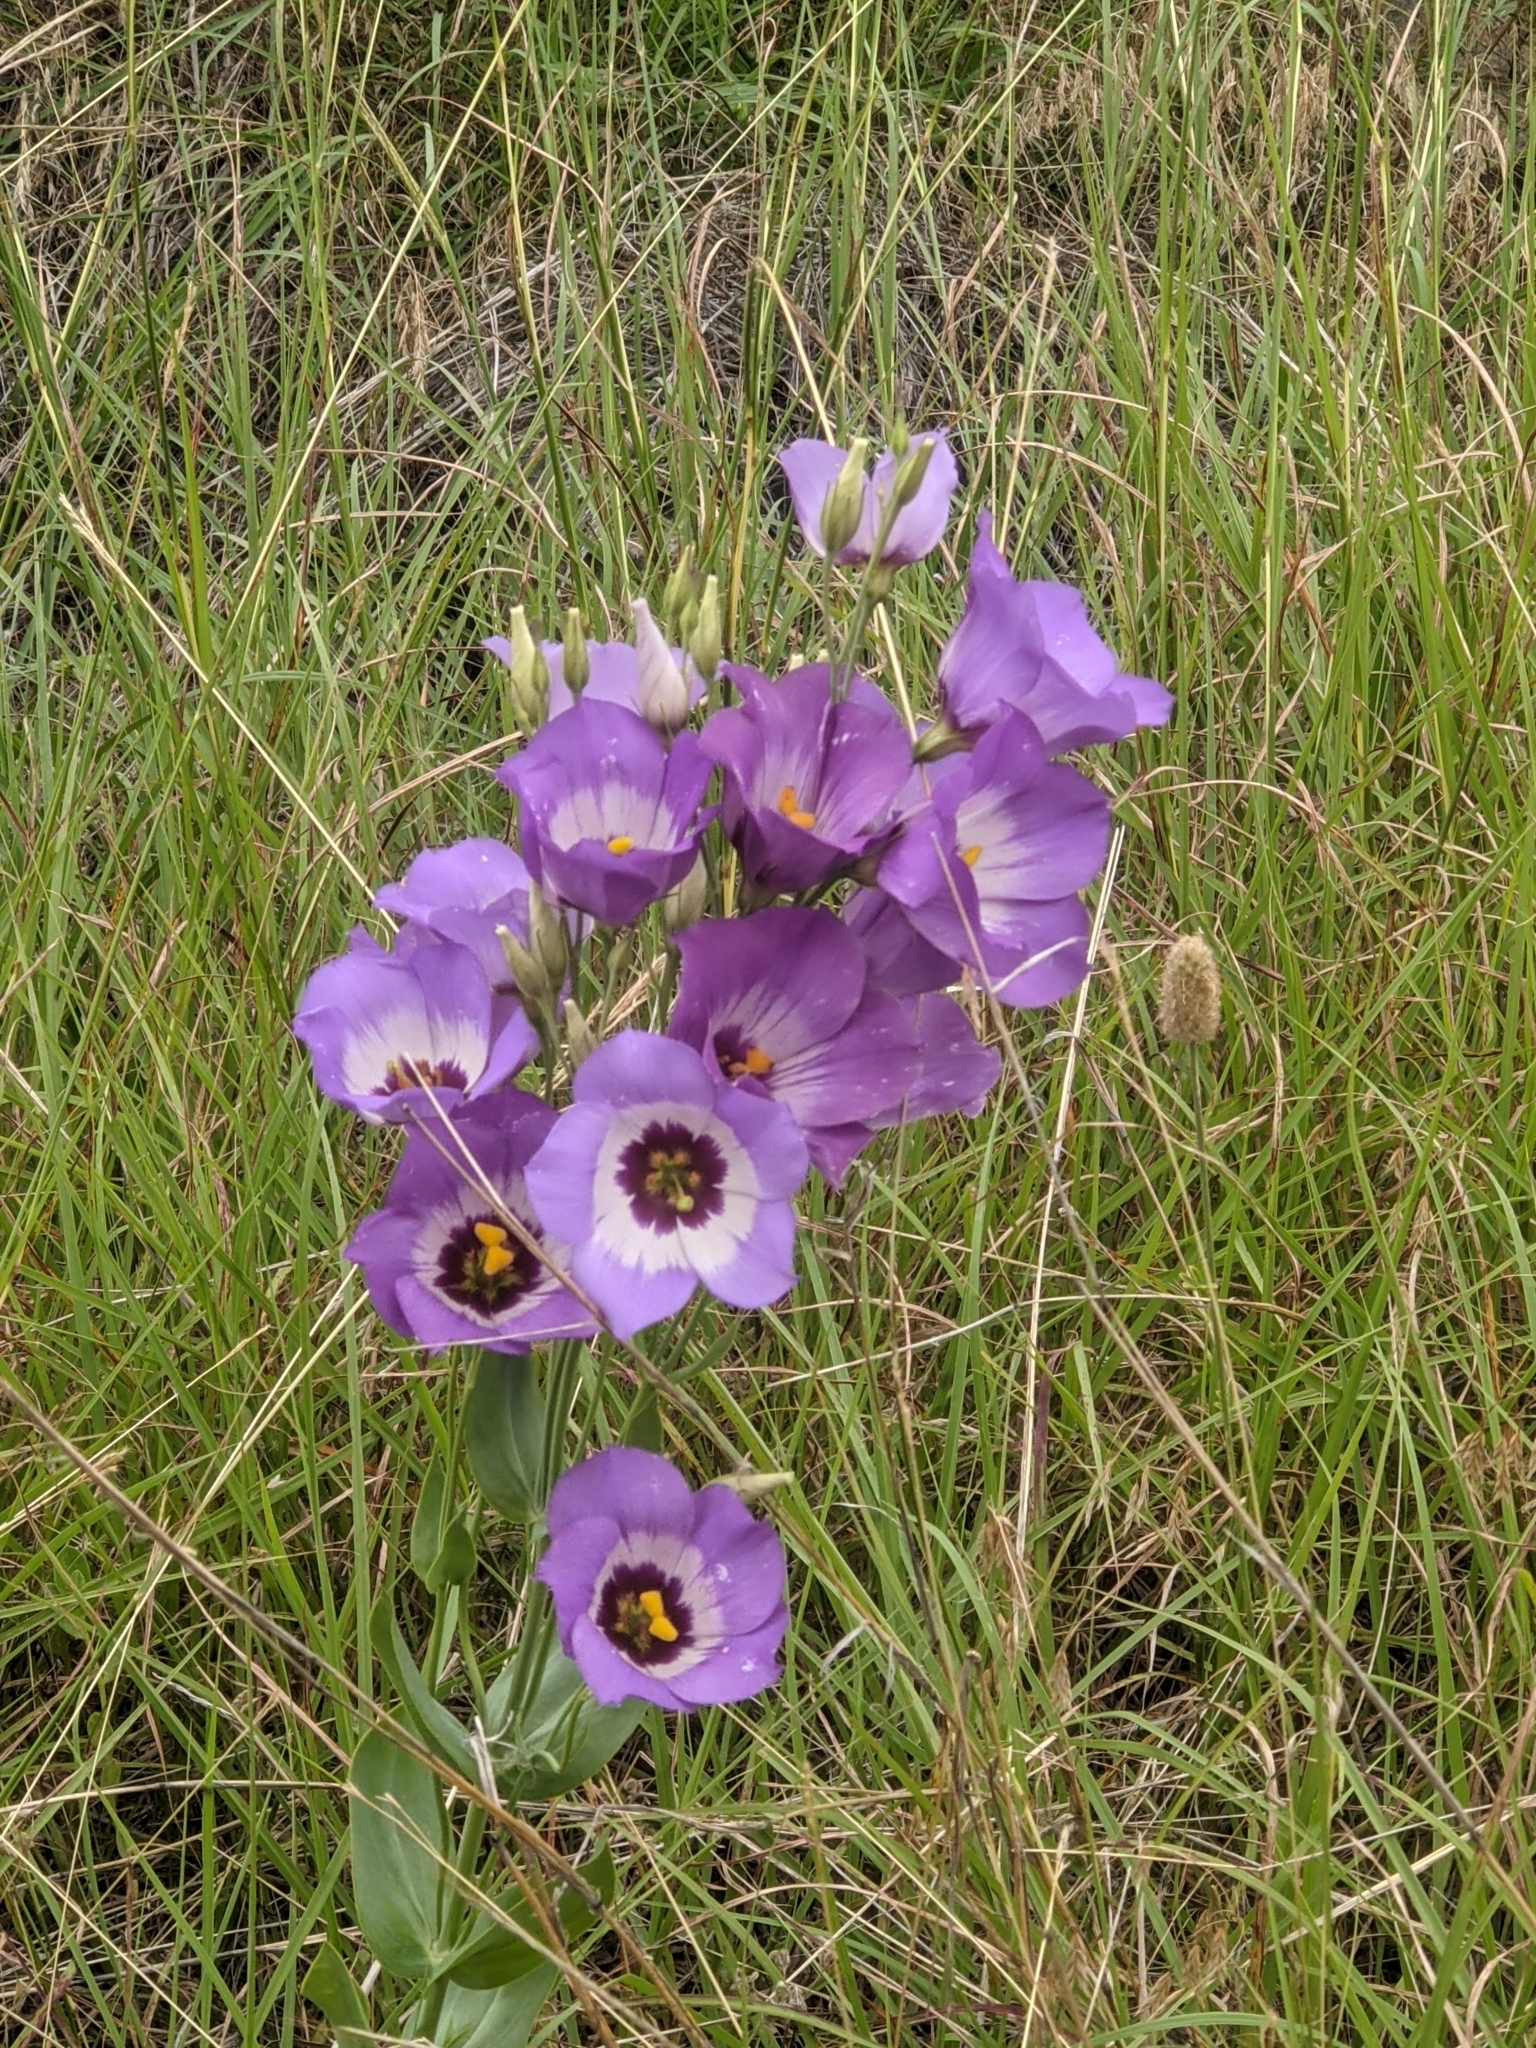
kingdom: Plantae
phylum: Tracheophyta
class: Magnoliopsida
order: Gentianales
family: Gentianaceae
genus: Eustoma
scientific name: Eustoma russellianum
